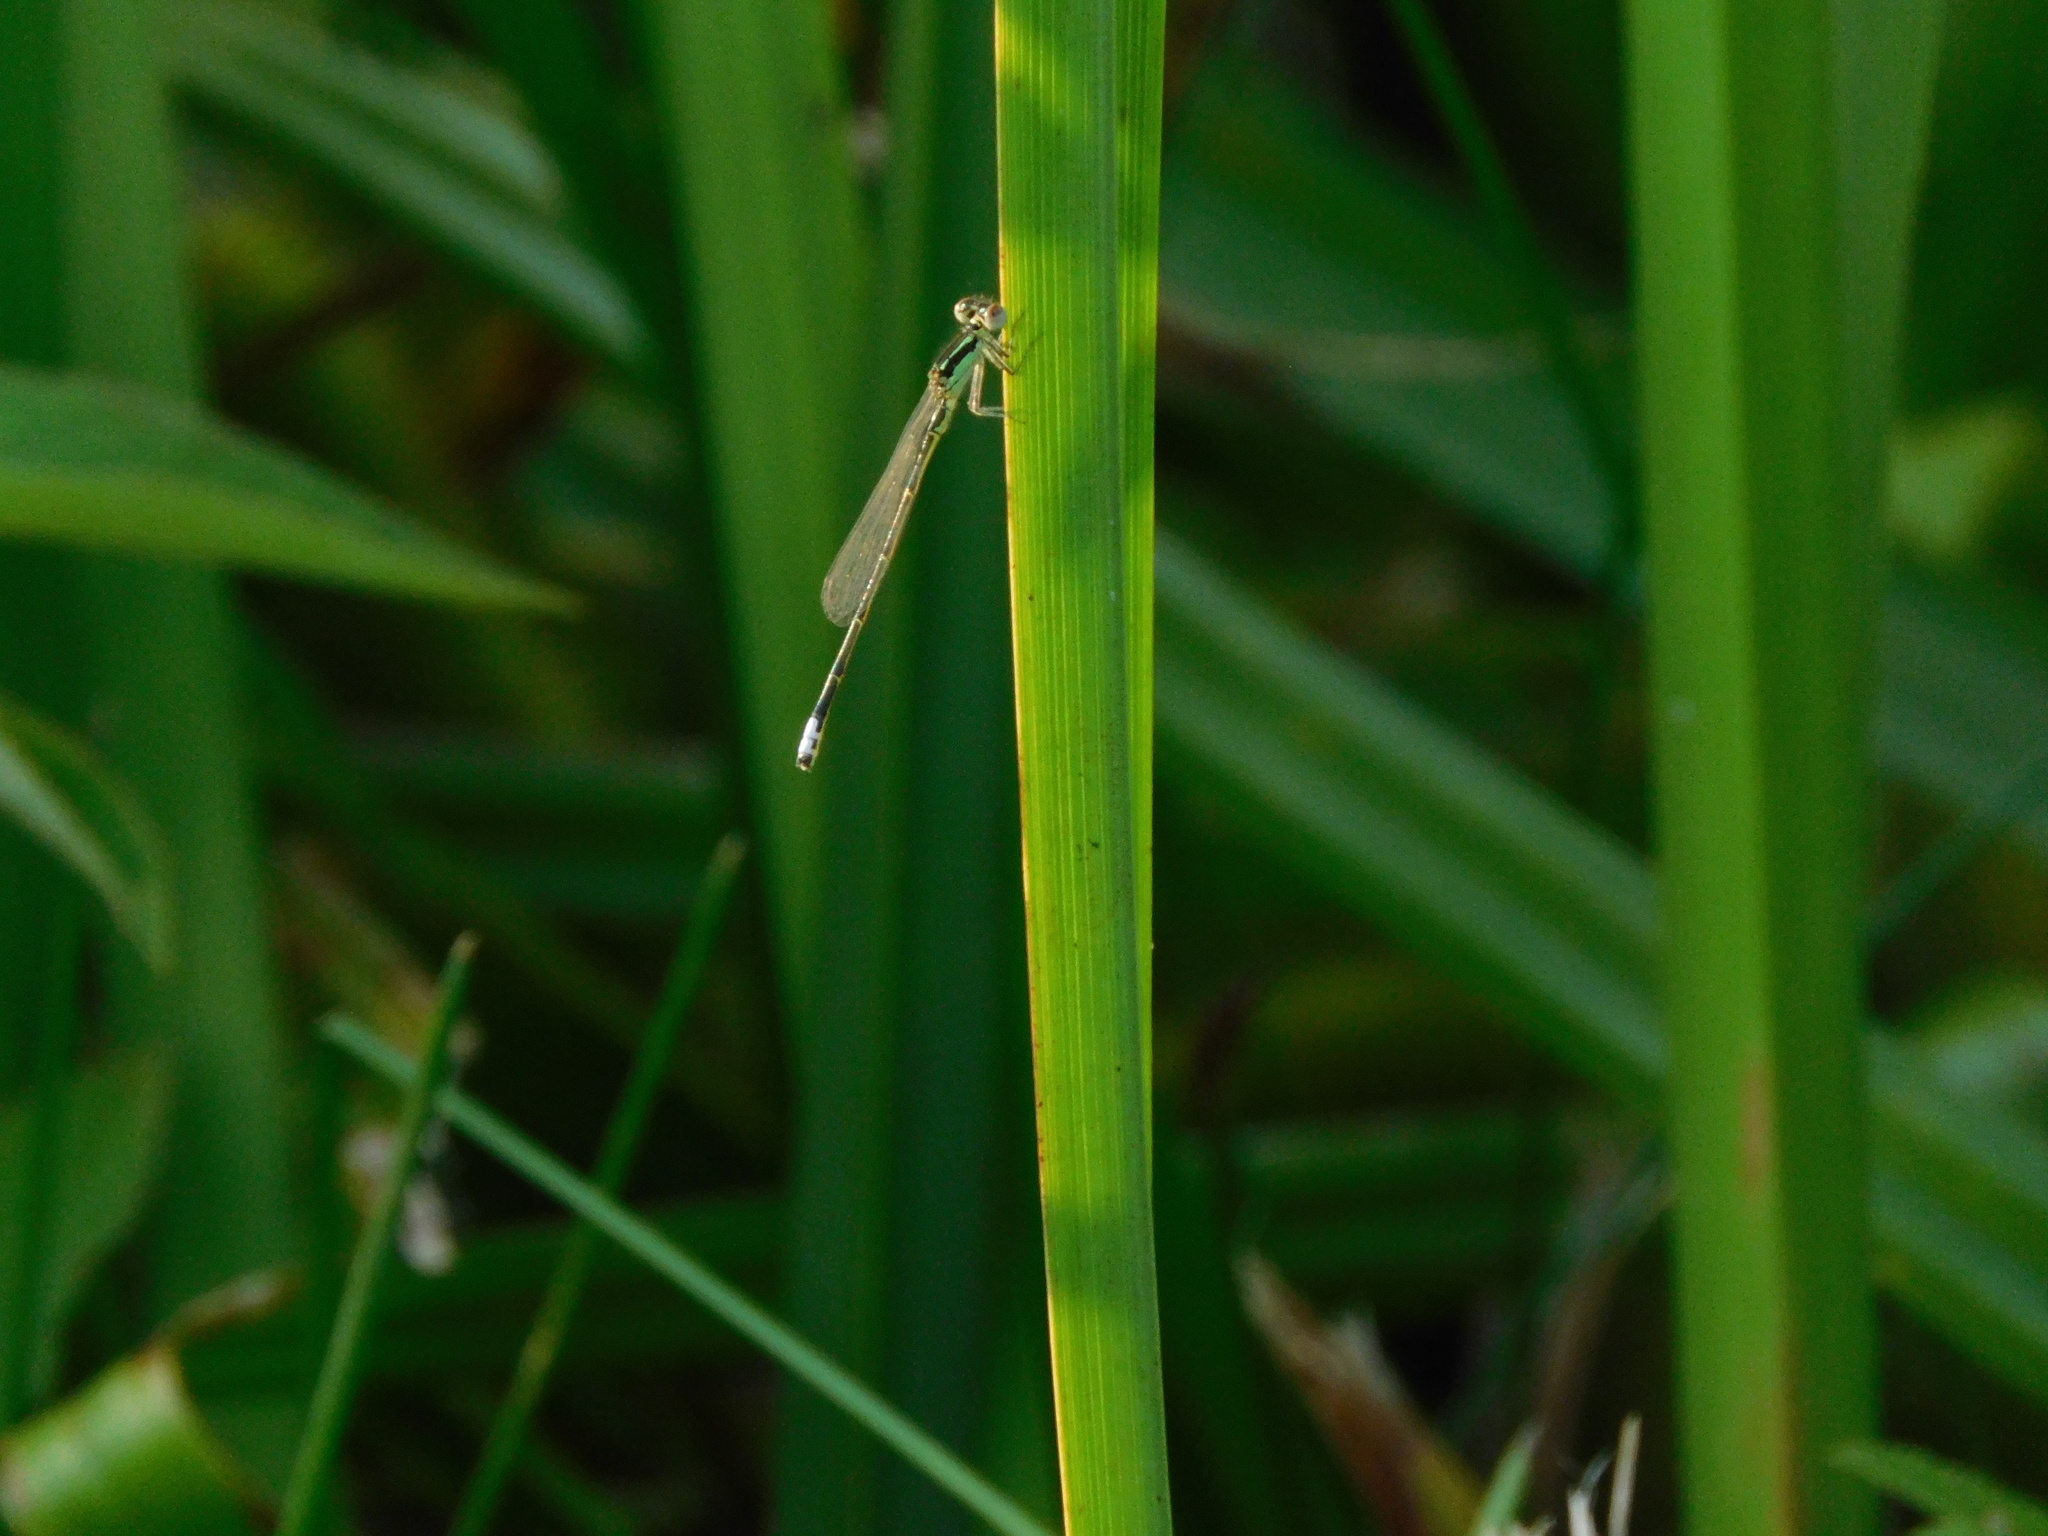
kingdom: Animalia
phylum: Arthropoda
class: Insecta
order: Odonata
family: Coenagrionidae
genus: Ischnura
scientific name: Ischnura verticalis
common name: Eastern forktail
